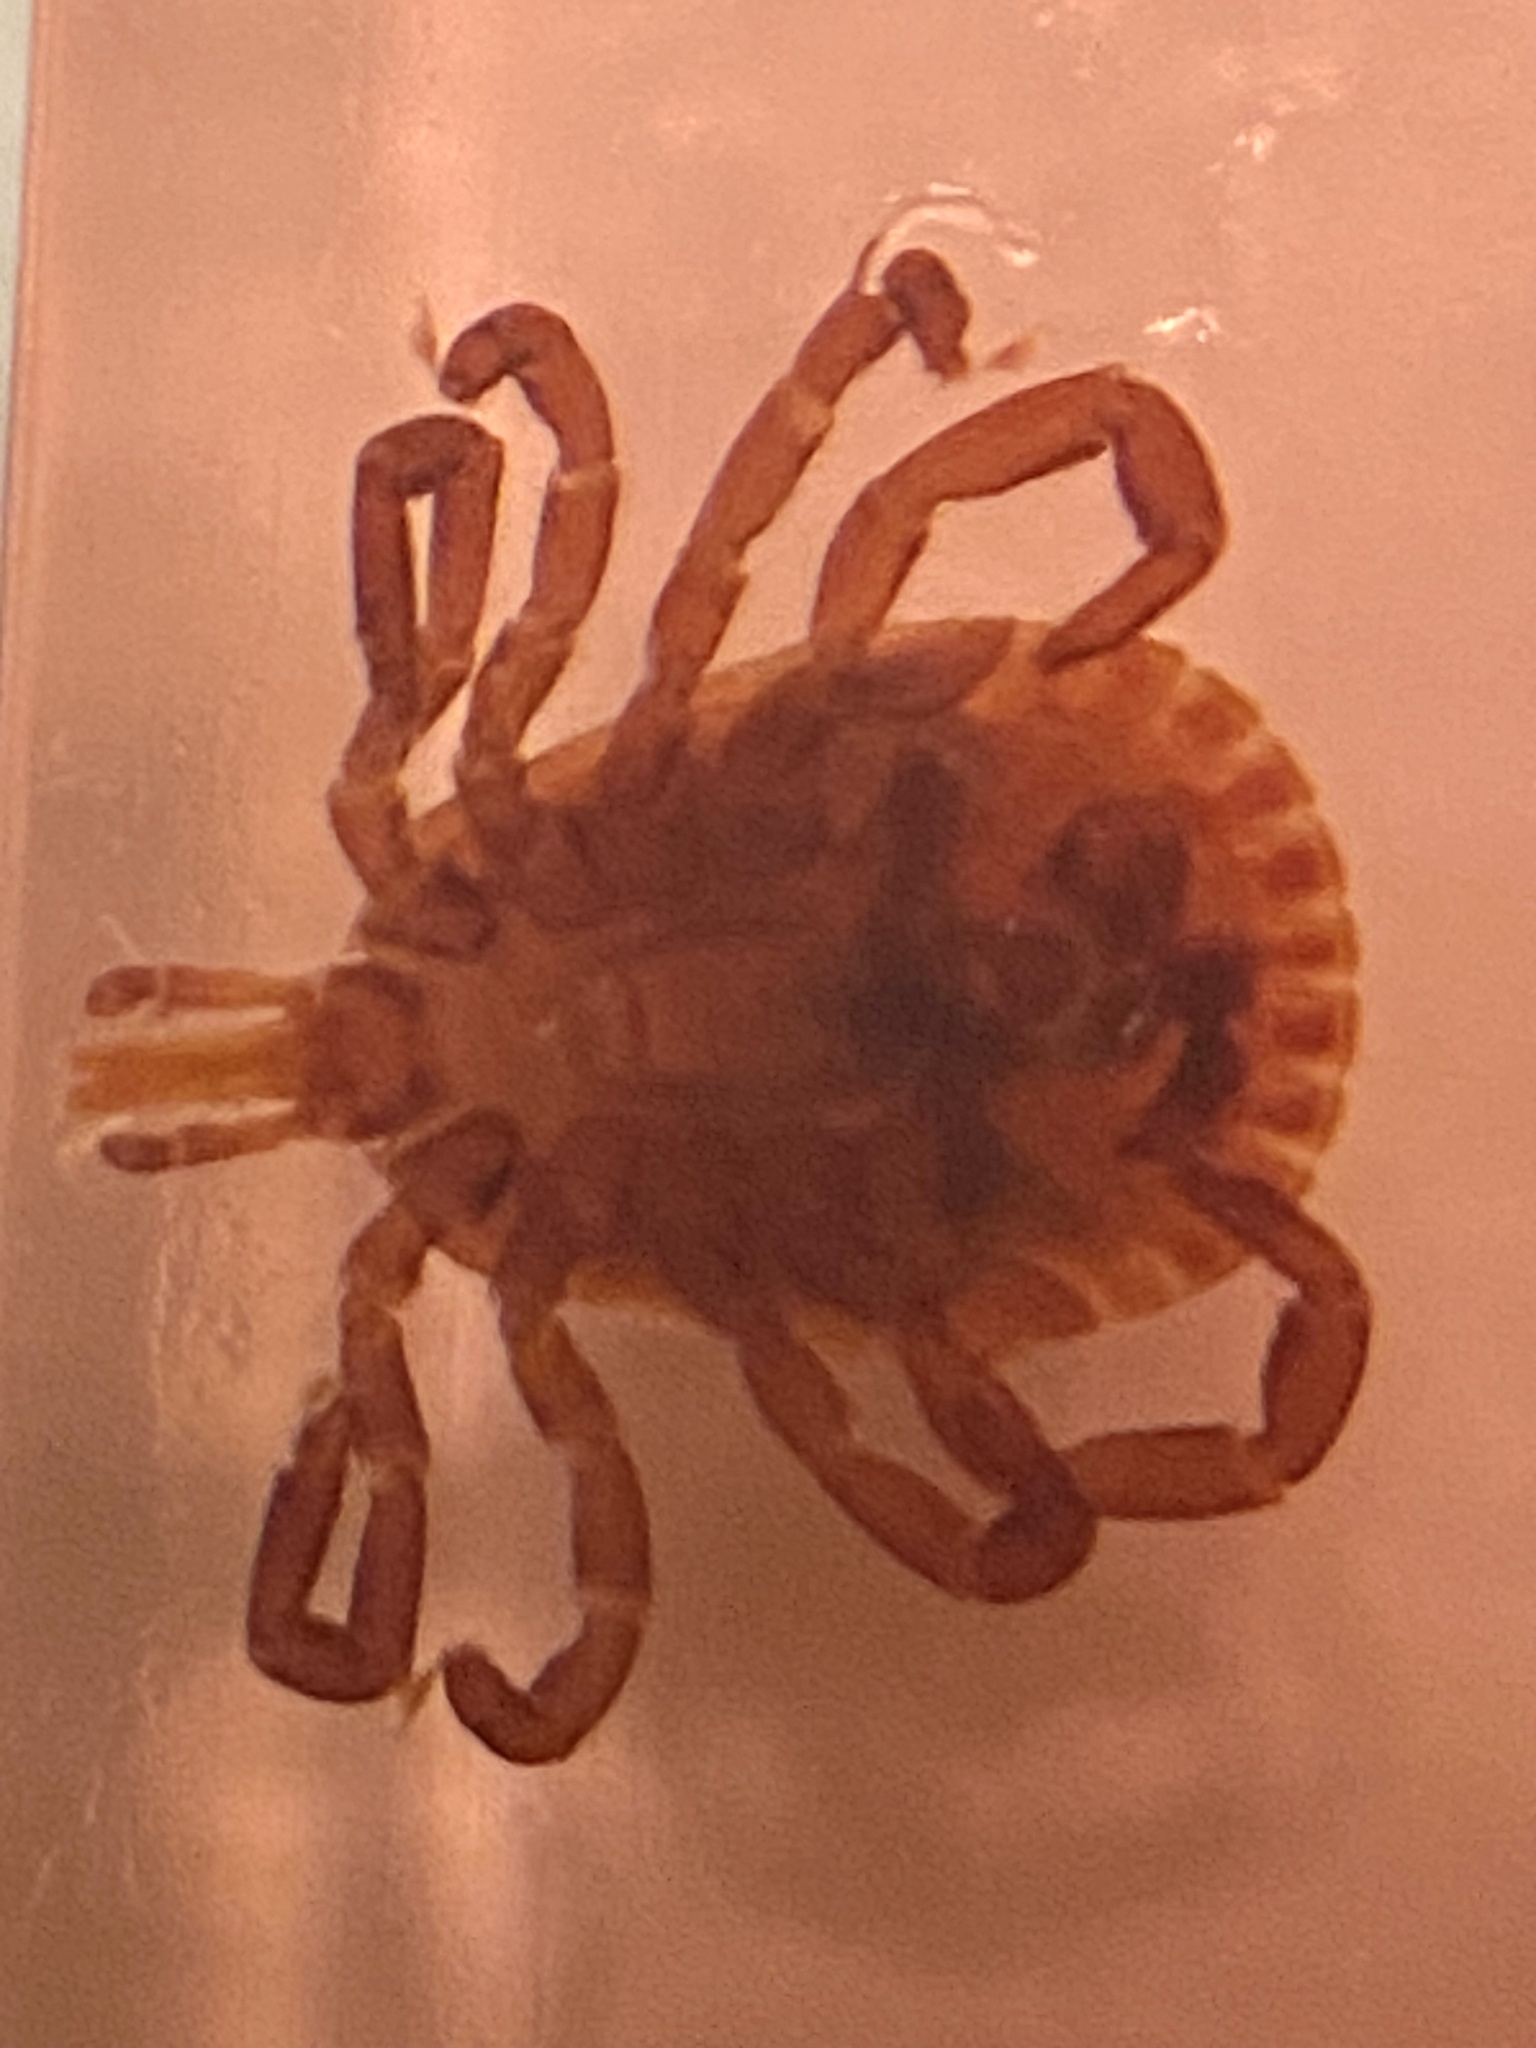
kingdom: Animalia
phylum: Arthropoda
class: Arachnida
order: Ixodida
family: Ixodidae
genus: Amblyomma
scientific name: Amblyomma americanum
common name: Lone star tick
